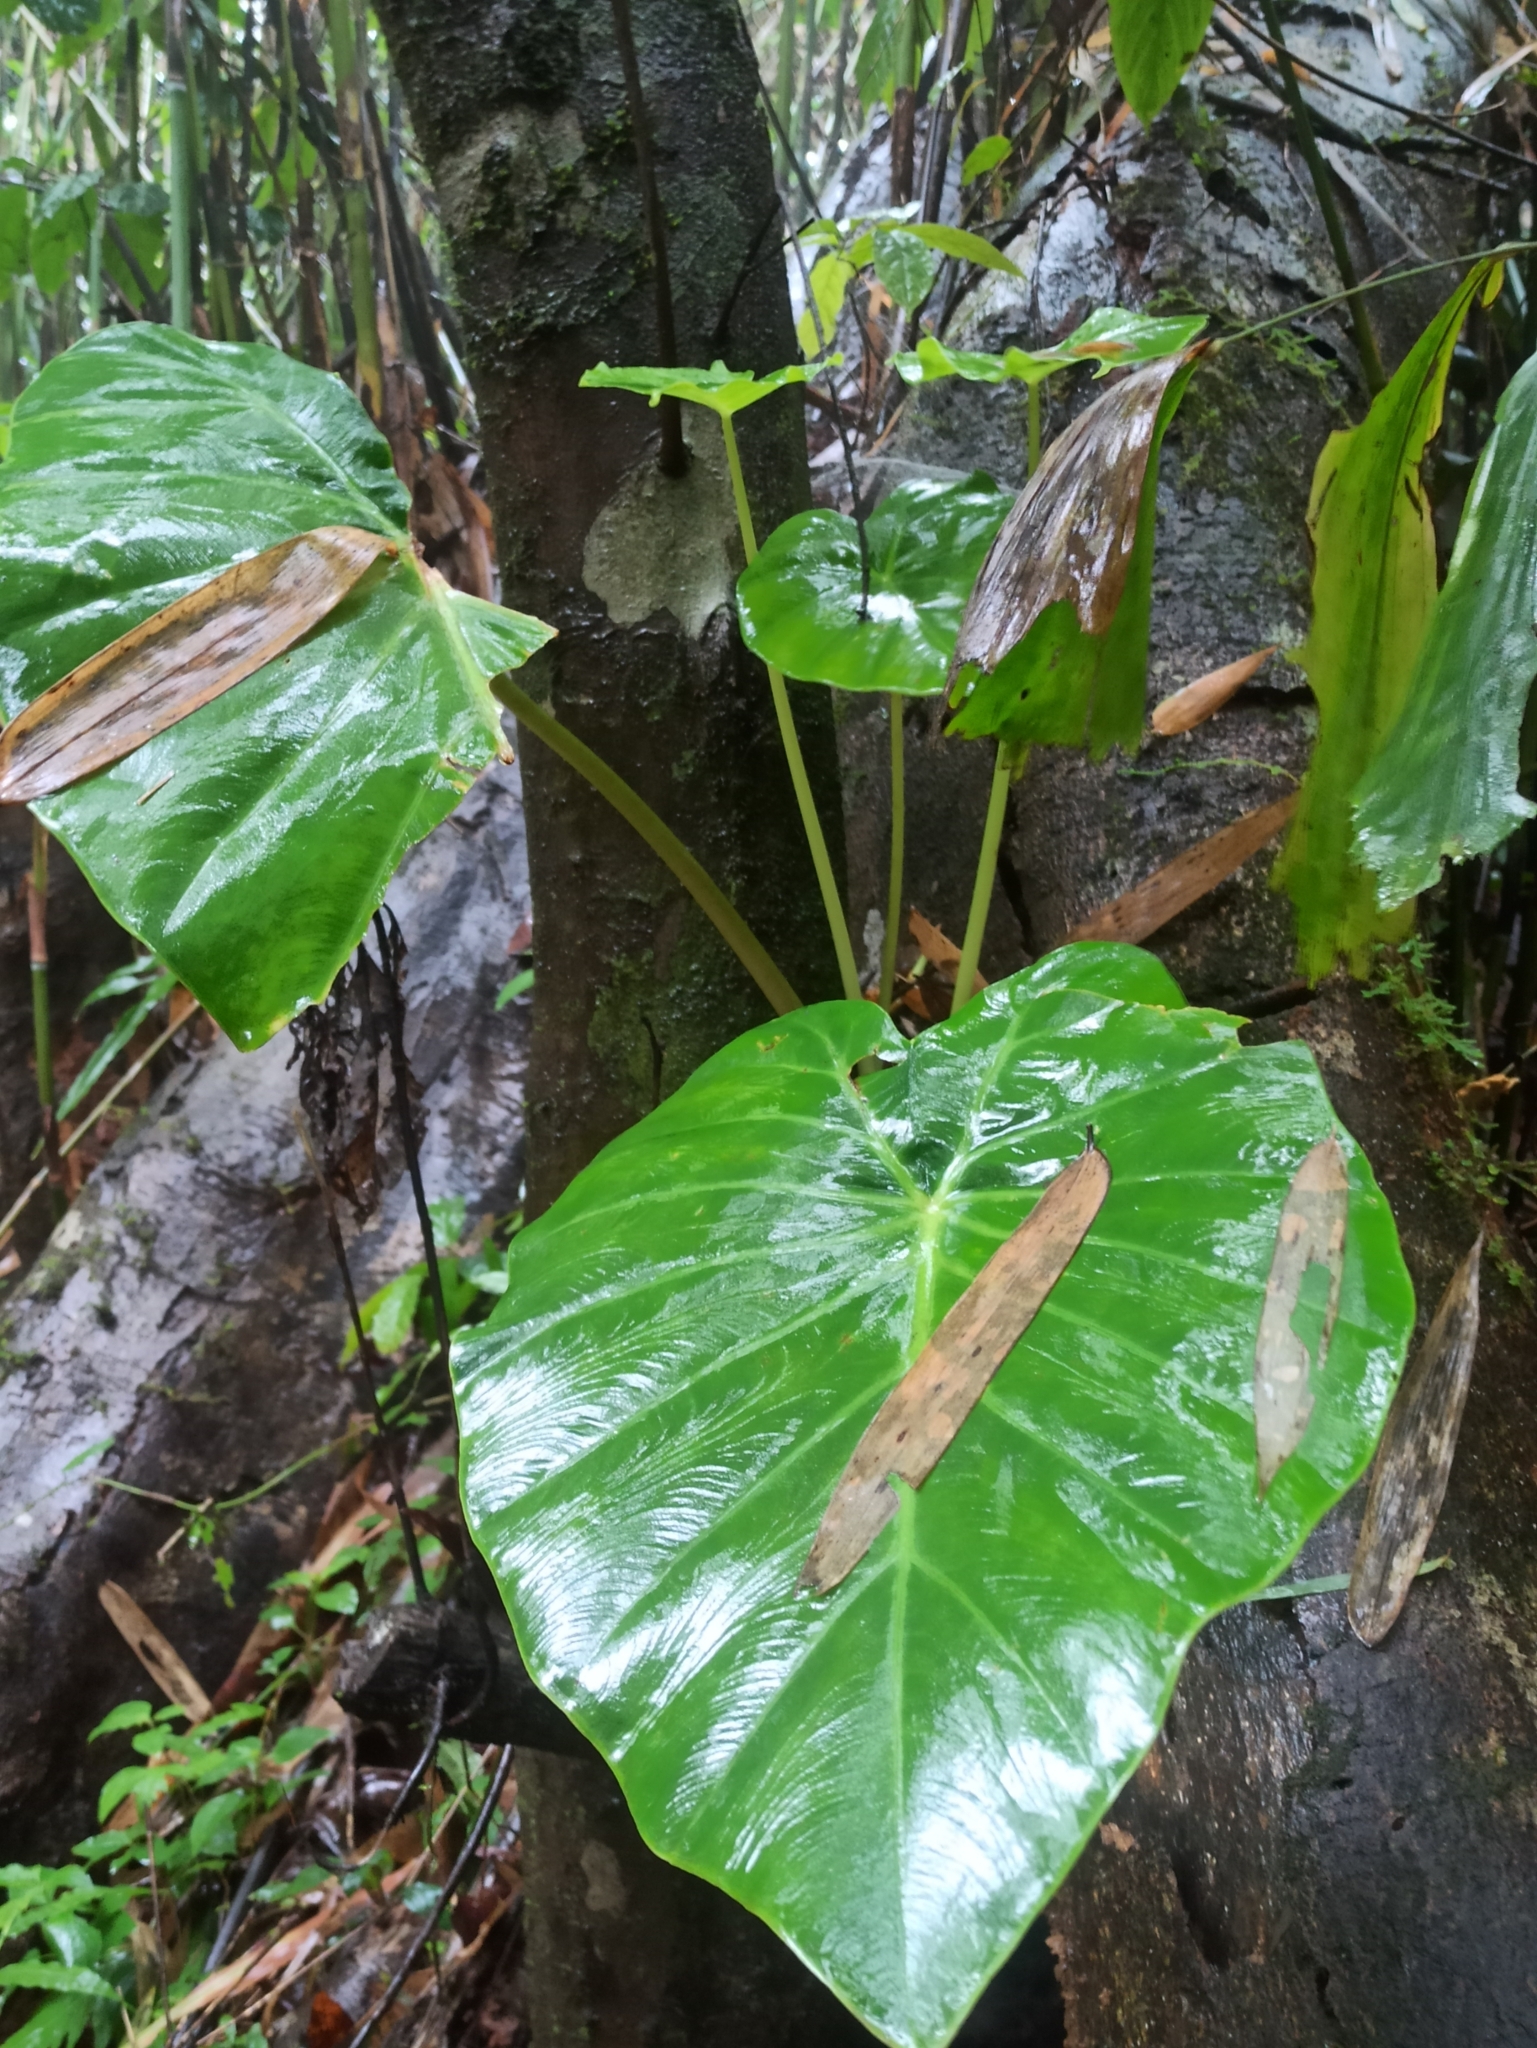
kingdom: Plantae
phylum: Tracheophyta
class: Liliopsida
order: Alismatales
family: Araceae
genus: Remusatia
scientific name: Remusatia vivipara
